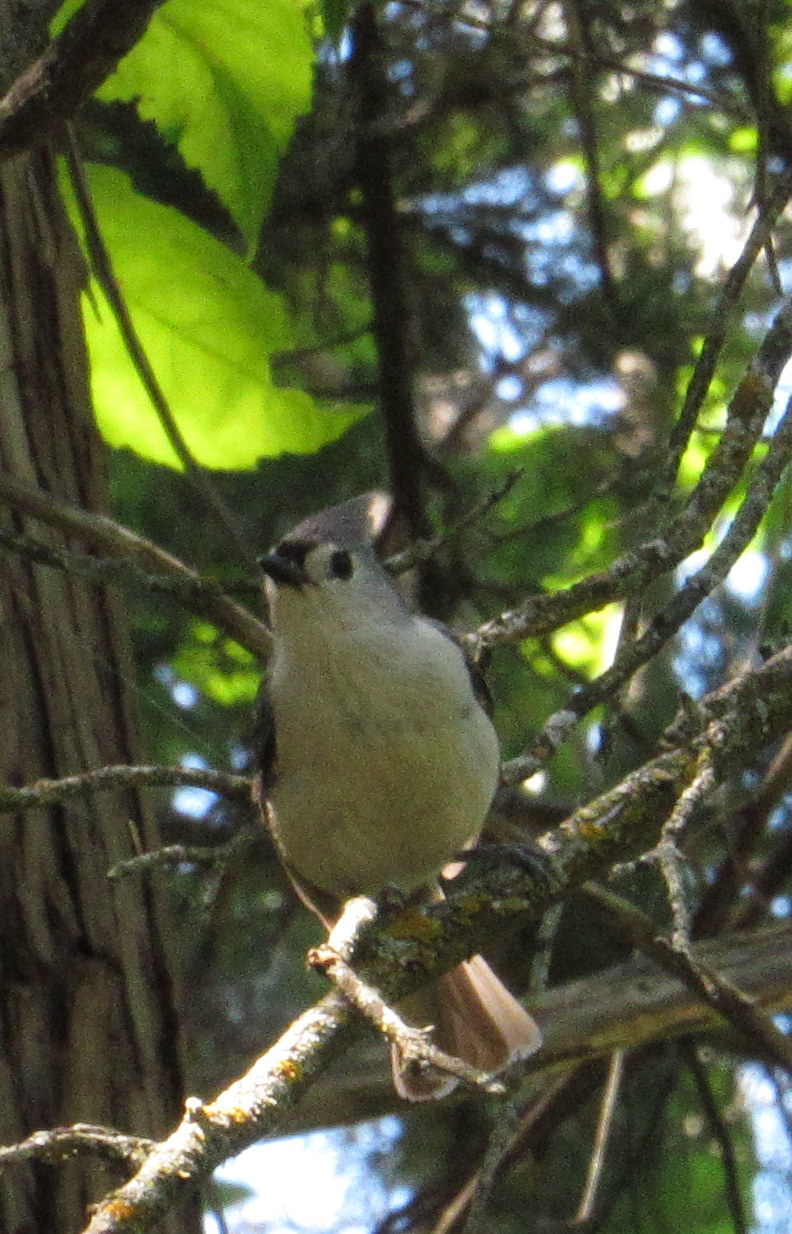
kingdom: Animalia
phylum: Chordata
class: Aves
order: Passeriformes
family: Paridae
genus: Baeolophus
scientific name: Baeolophus bicolor
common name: Tufted titmouse
